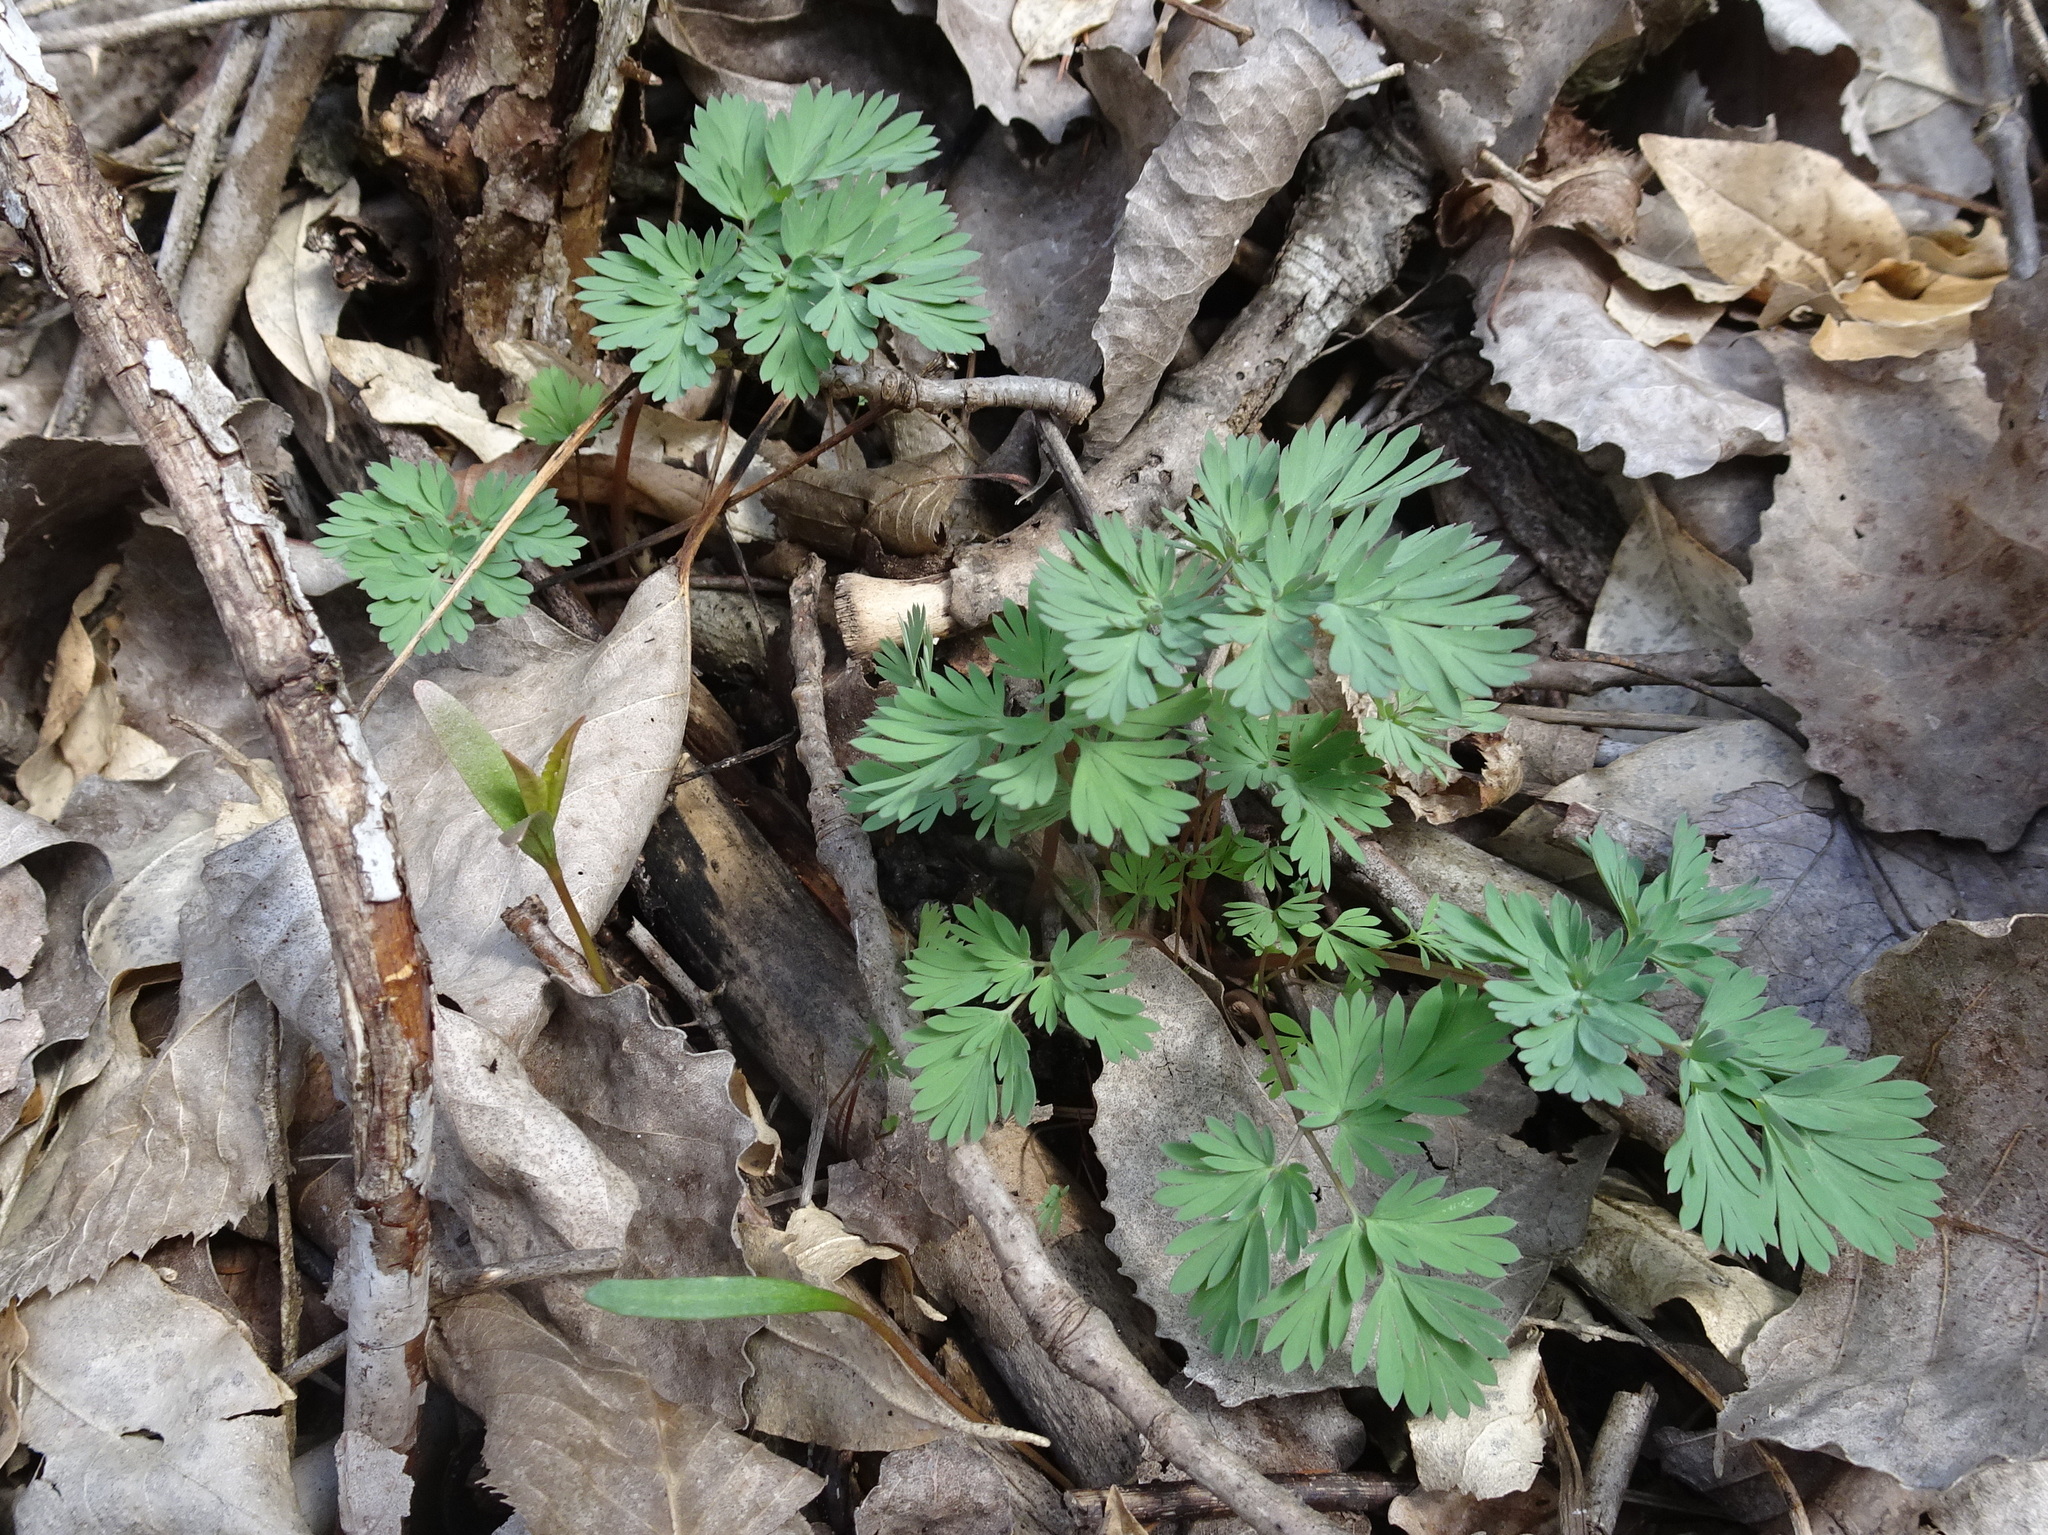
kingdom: Plantae
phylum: Tracheophyta
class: Magnoliopsida
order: Ranunculales
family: Papaveraceae
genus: Dicentra
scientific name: Dicentra cucullaria
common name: Dutchman's breeches
